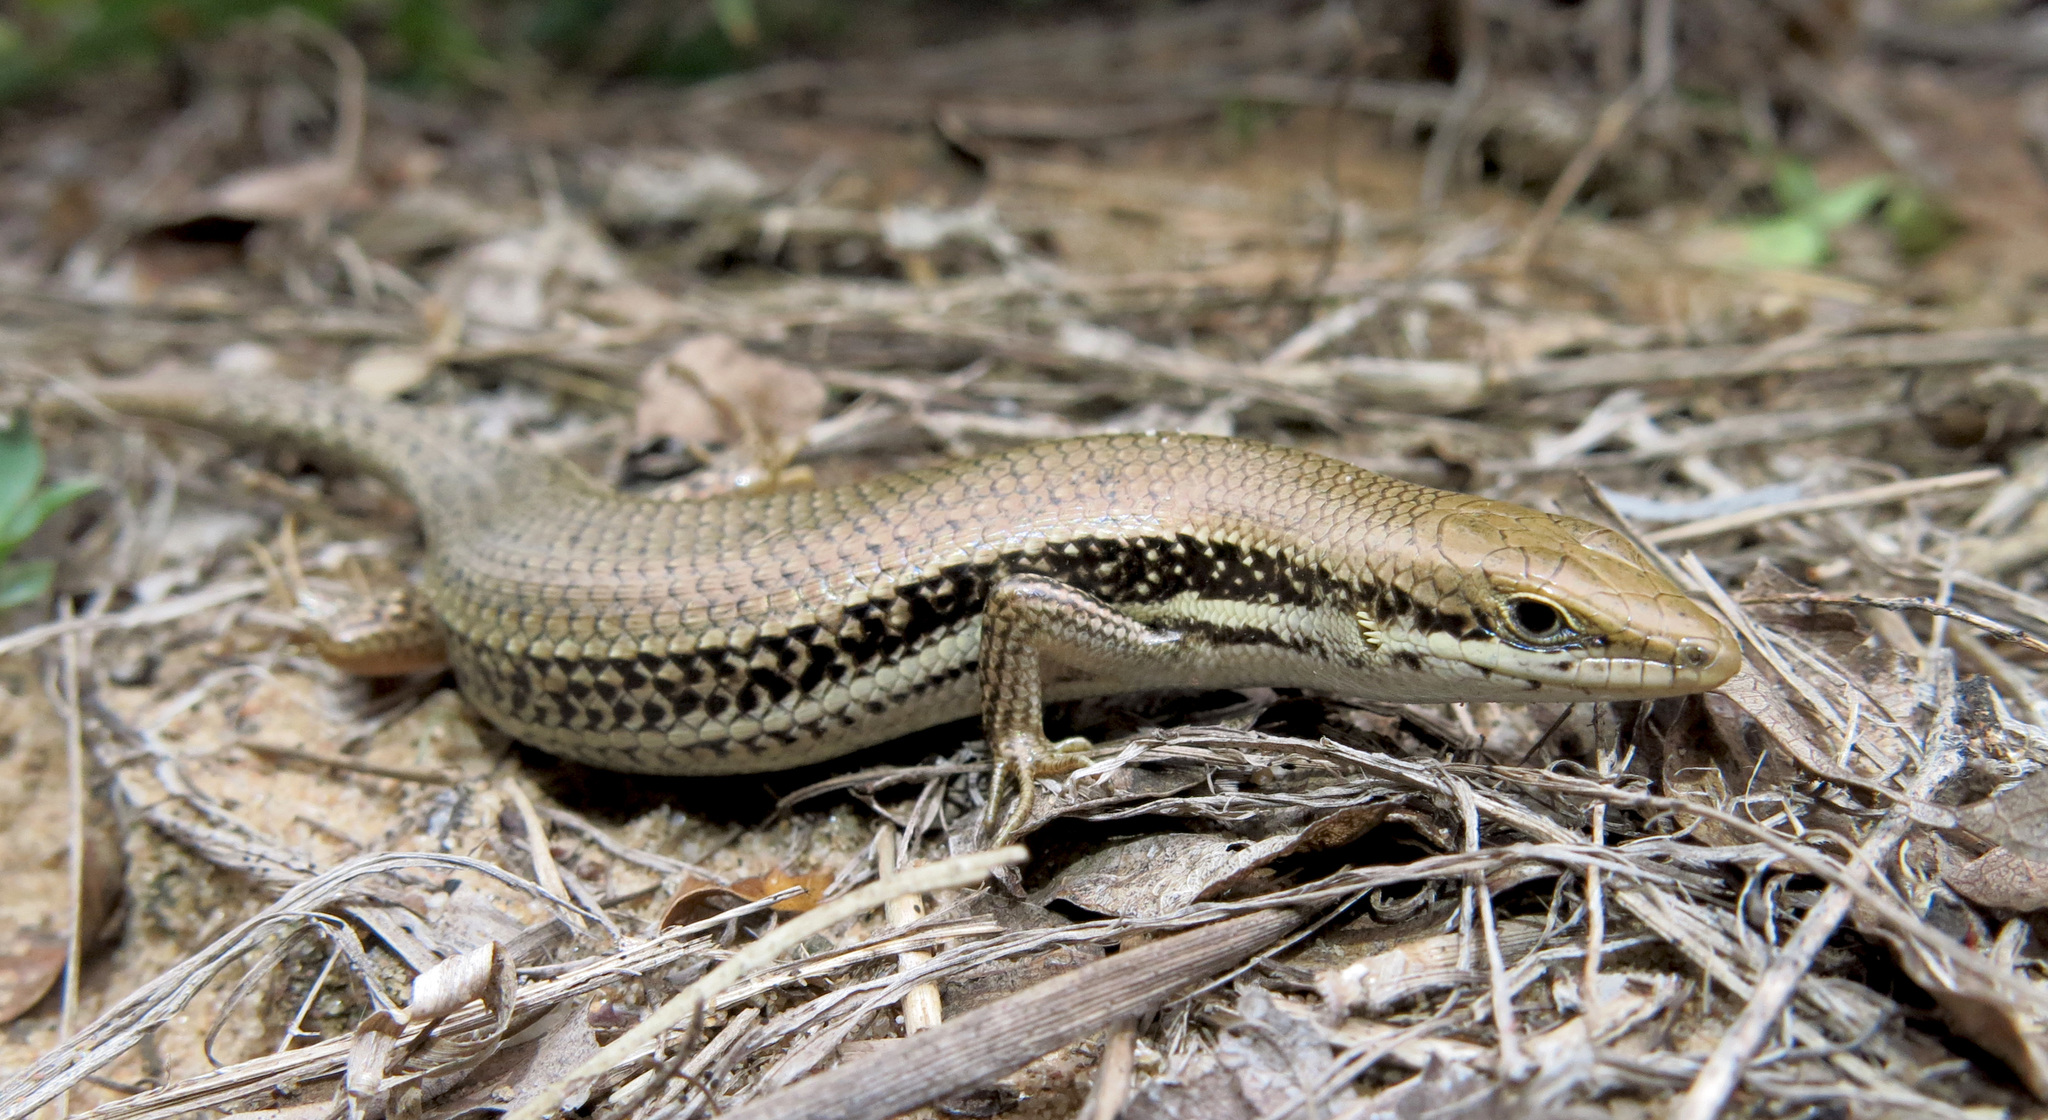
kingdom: Animalia
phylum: Chordata
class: Squamata
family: Scincidae
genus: Trachylepis
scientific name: Trachylepis depressa
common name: Eastern coastal skink
